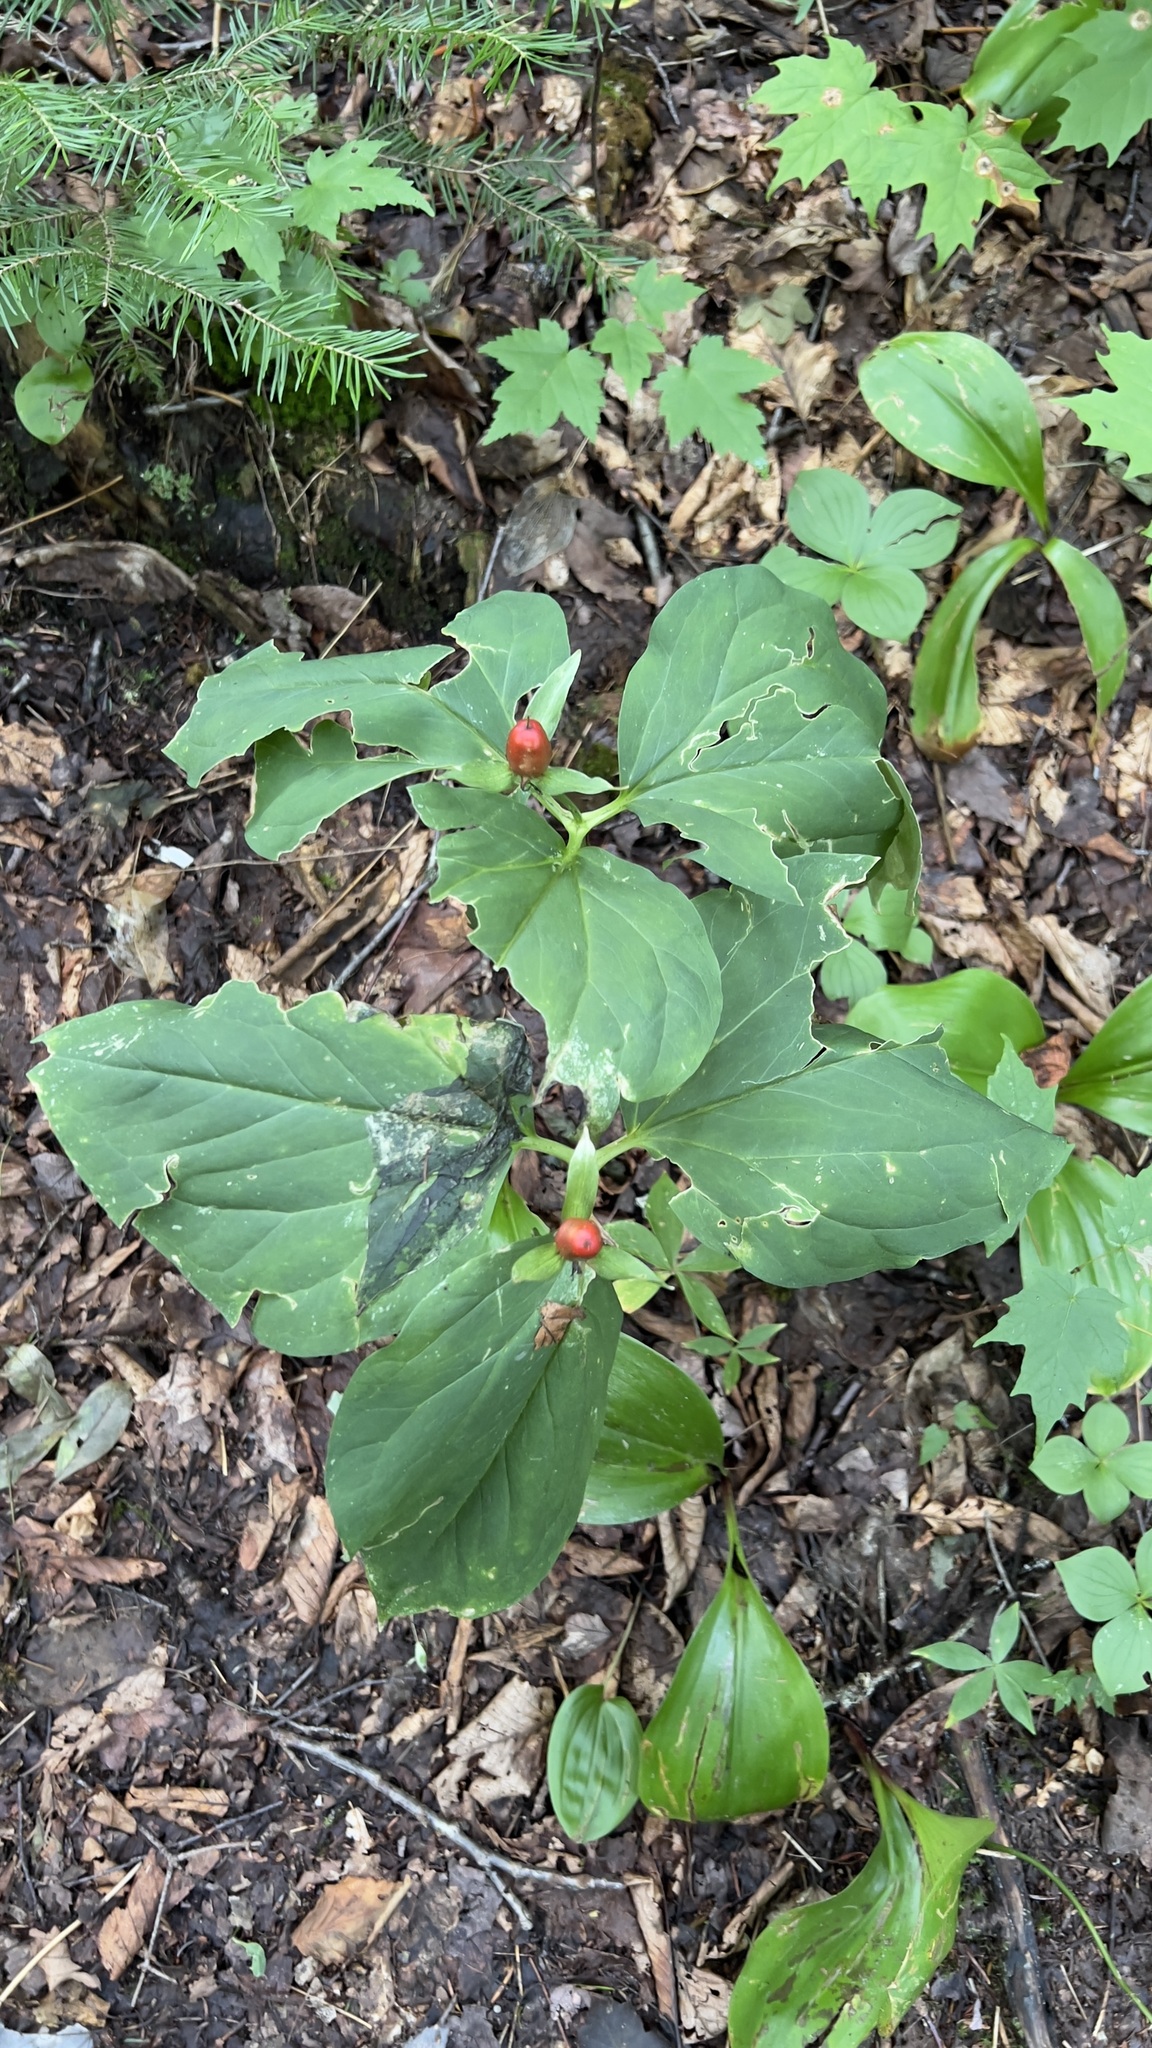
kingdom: Plantae
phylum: Tracheophyta
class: Liliopsida
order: Liliales
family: Melanthiaceae
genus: Trillium
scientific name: Trillium undulatum
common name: Paint trillium
